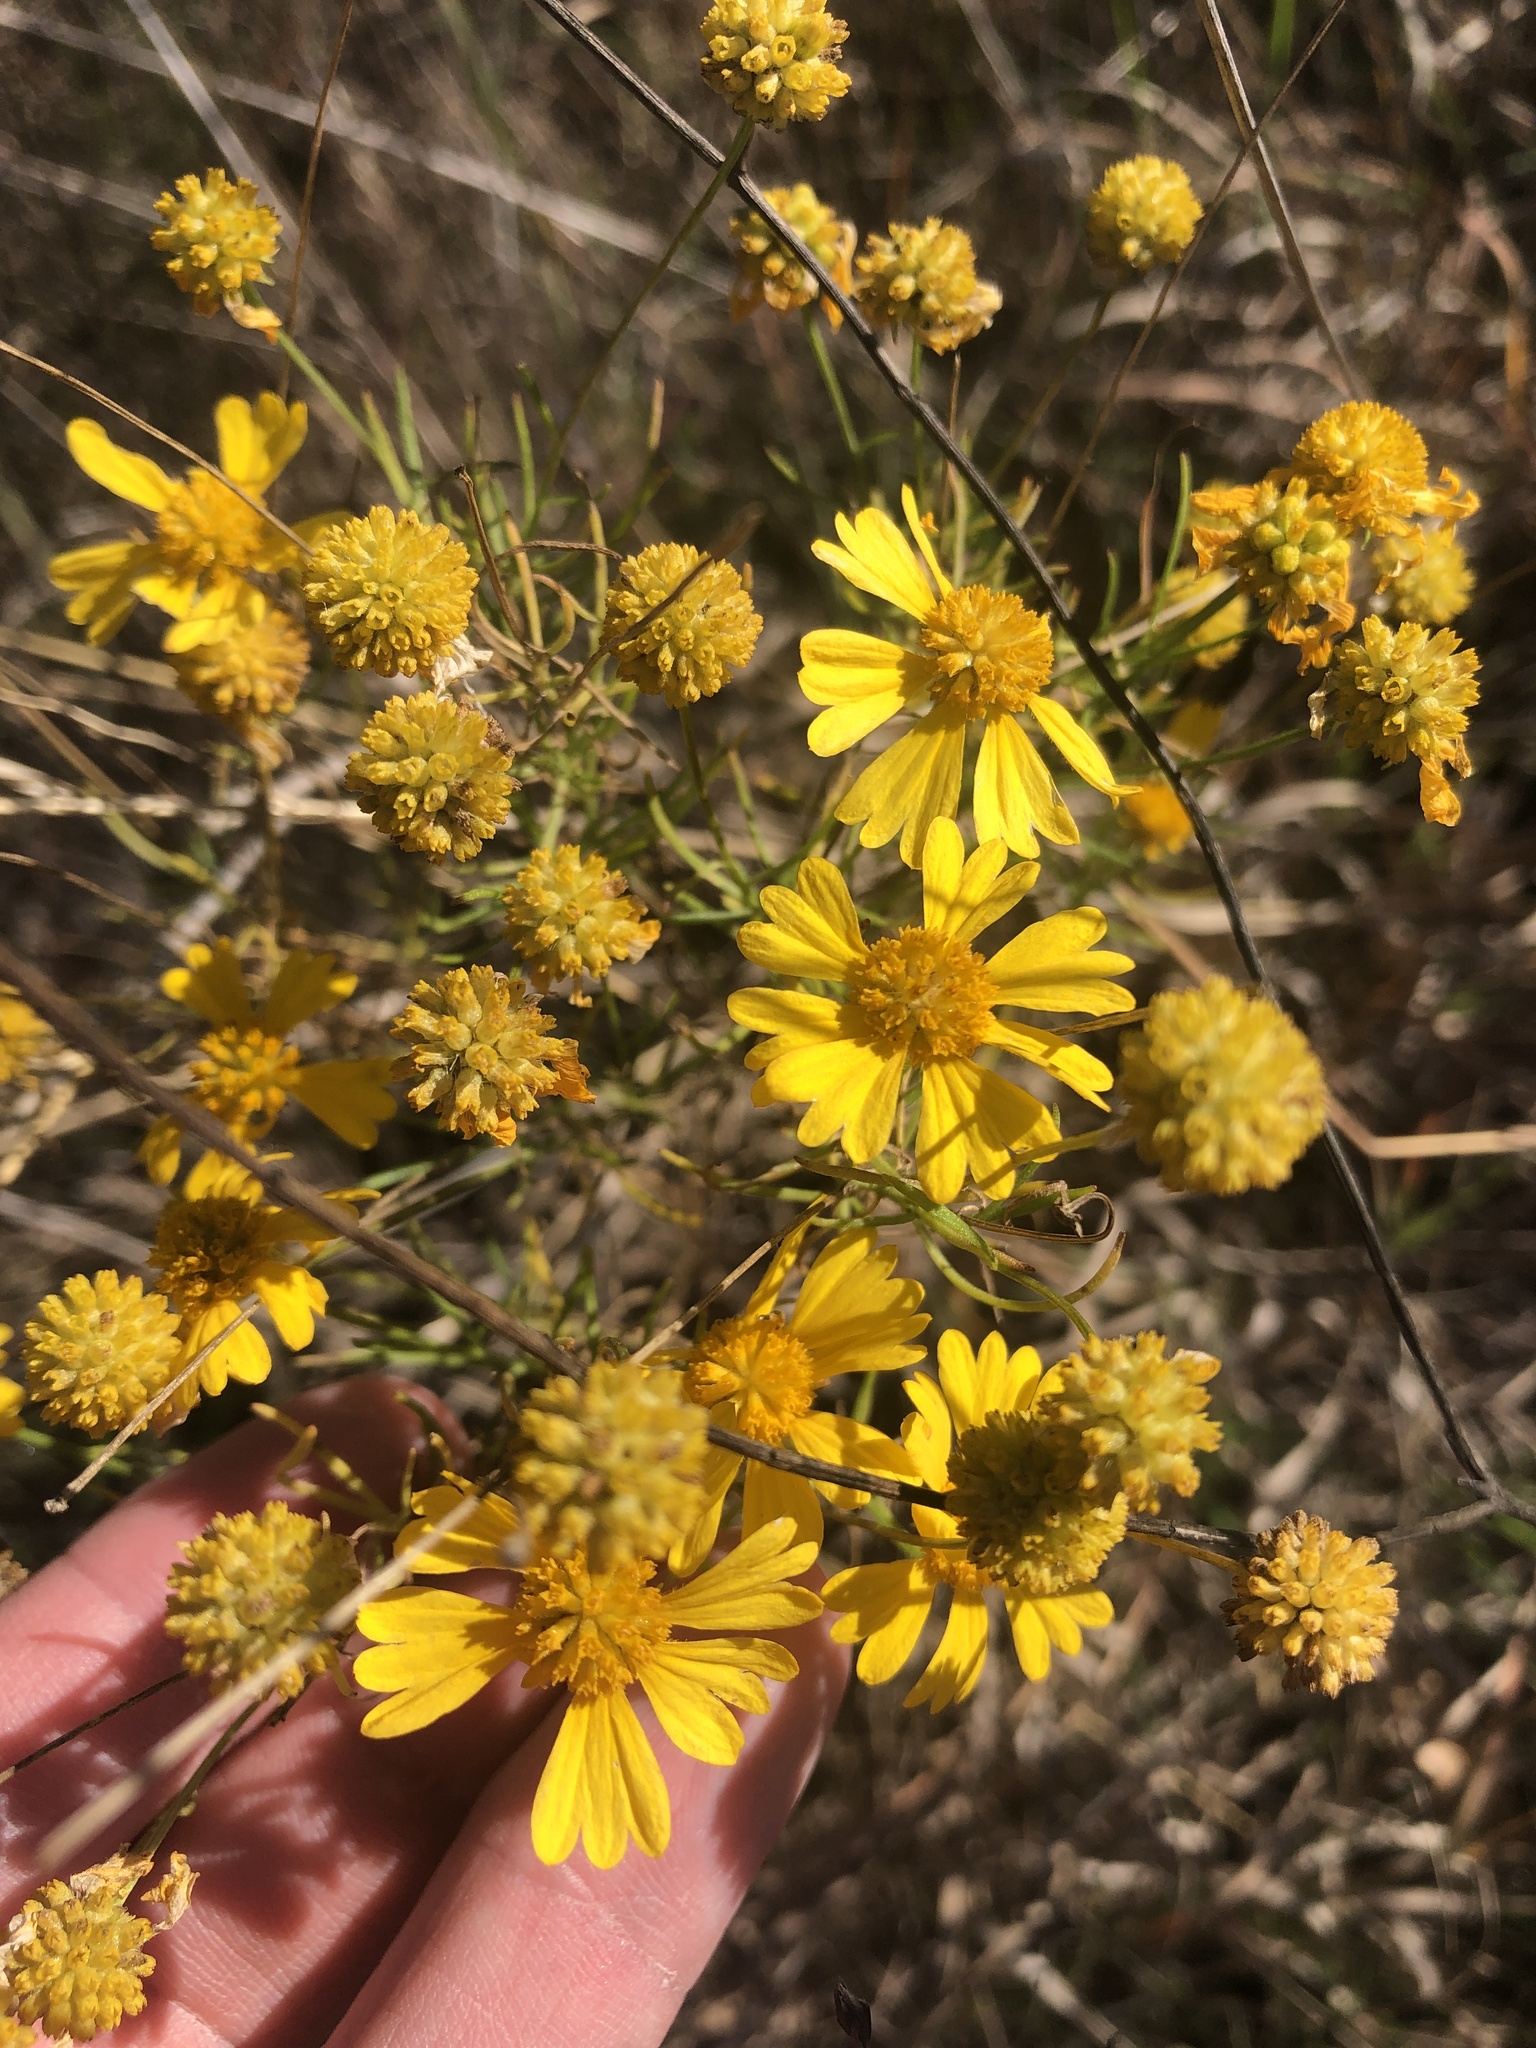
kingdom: Plantae
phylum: Tracheophyta
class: Magnoliopsida
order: Asterales
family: Asteraceae
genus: Helenium
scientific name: Helenium amarum
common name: Bitter sneezeweed
